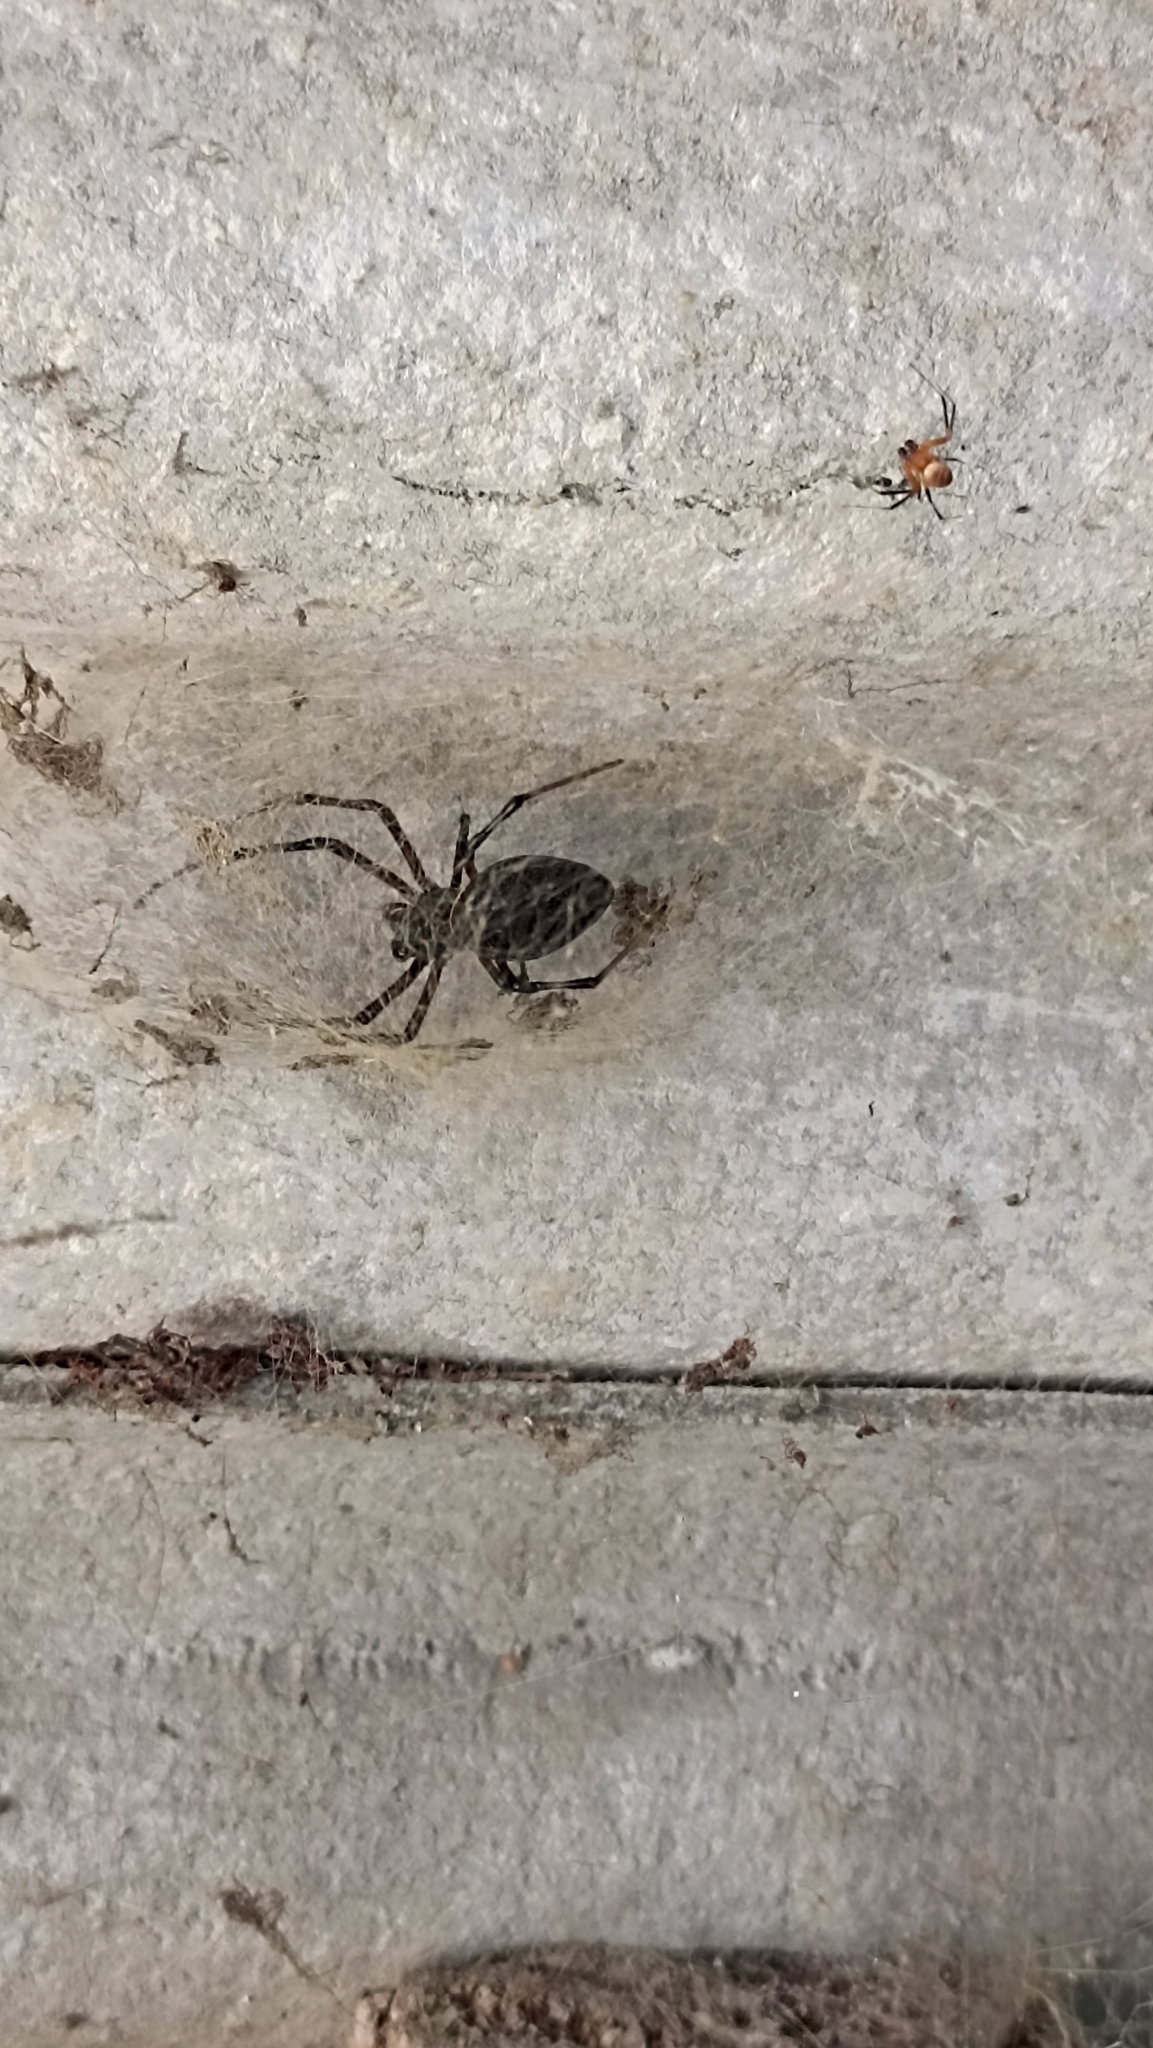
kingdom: Animalia
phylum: Arthropoda
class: Arachnida
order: Araneae
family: Araneidae
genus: Nephilingis
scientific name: Nephilingis cruentata
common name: African hermit spider
